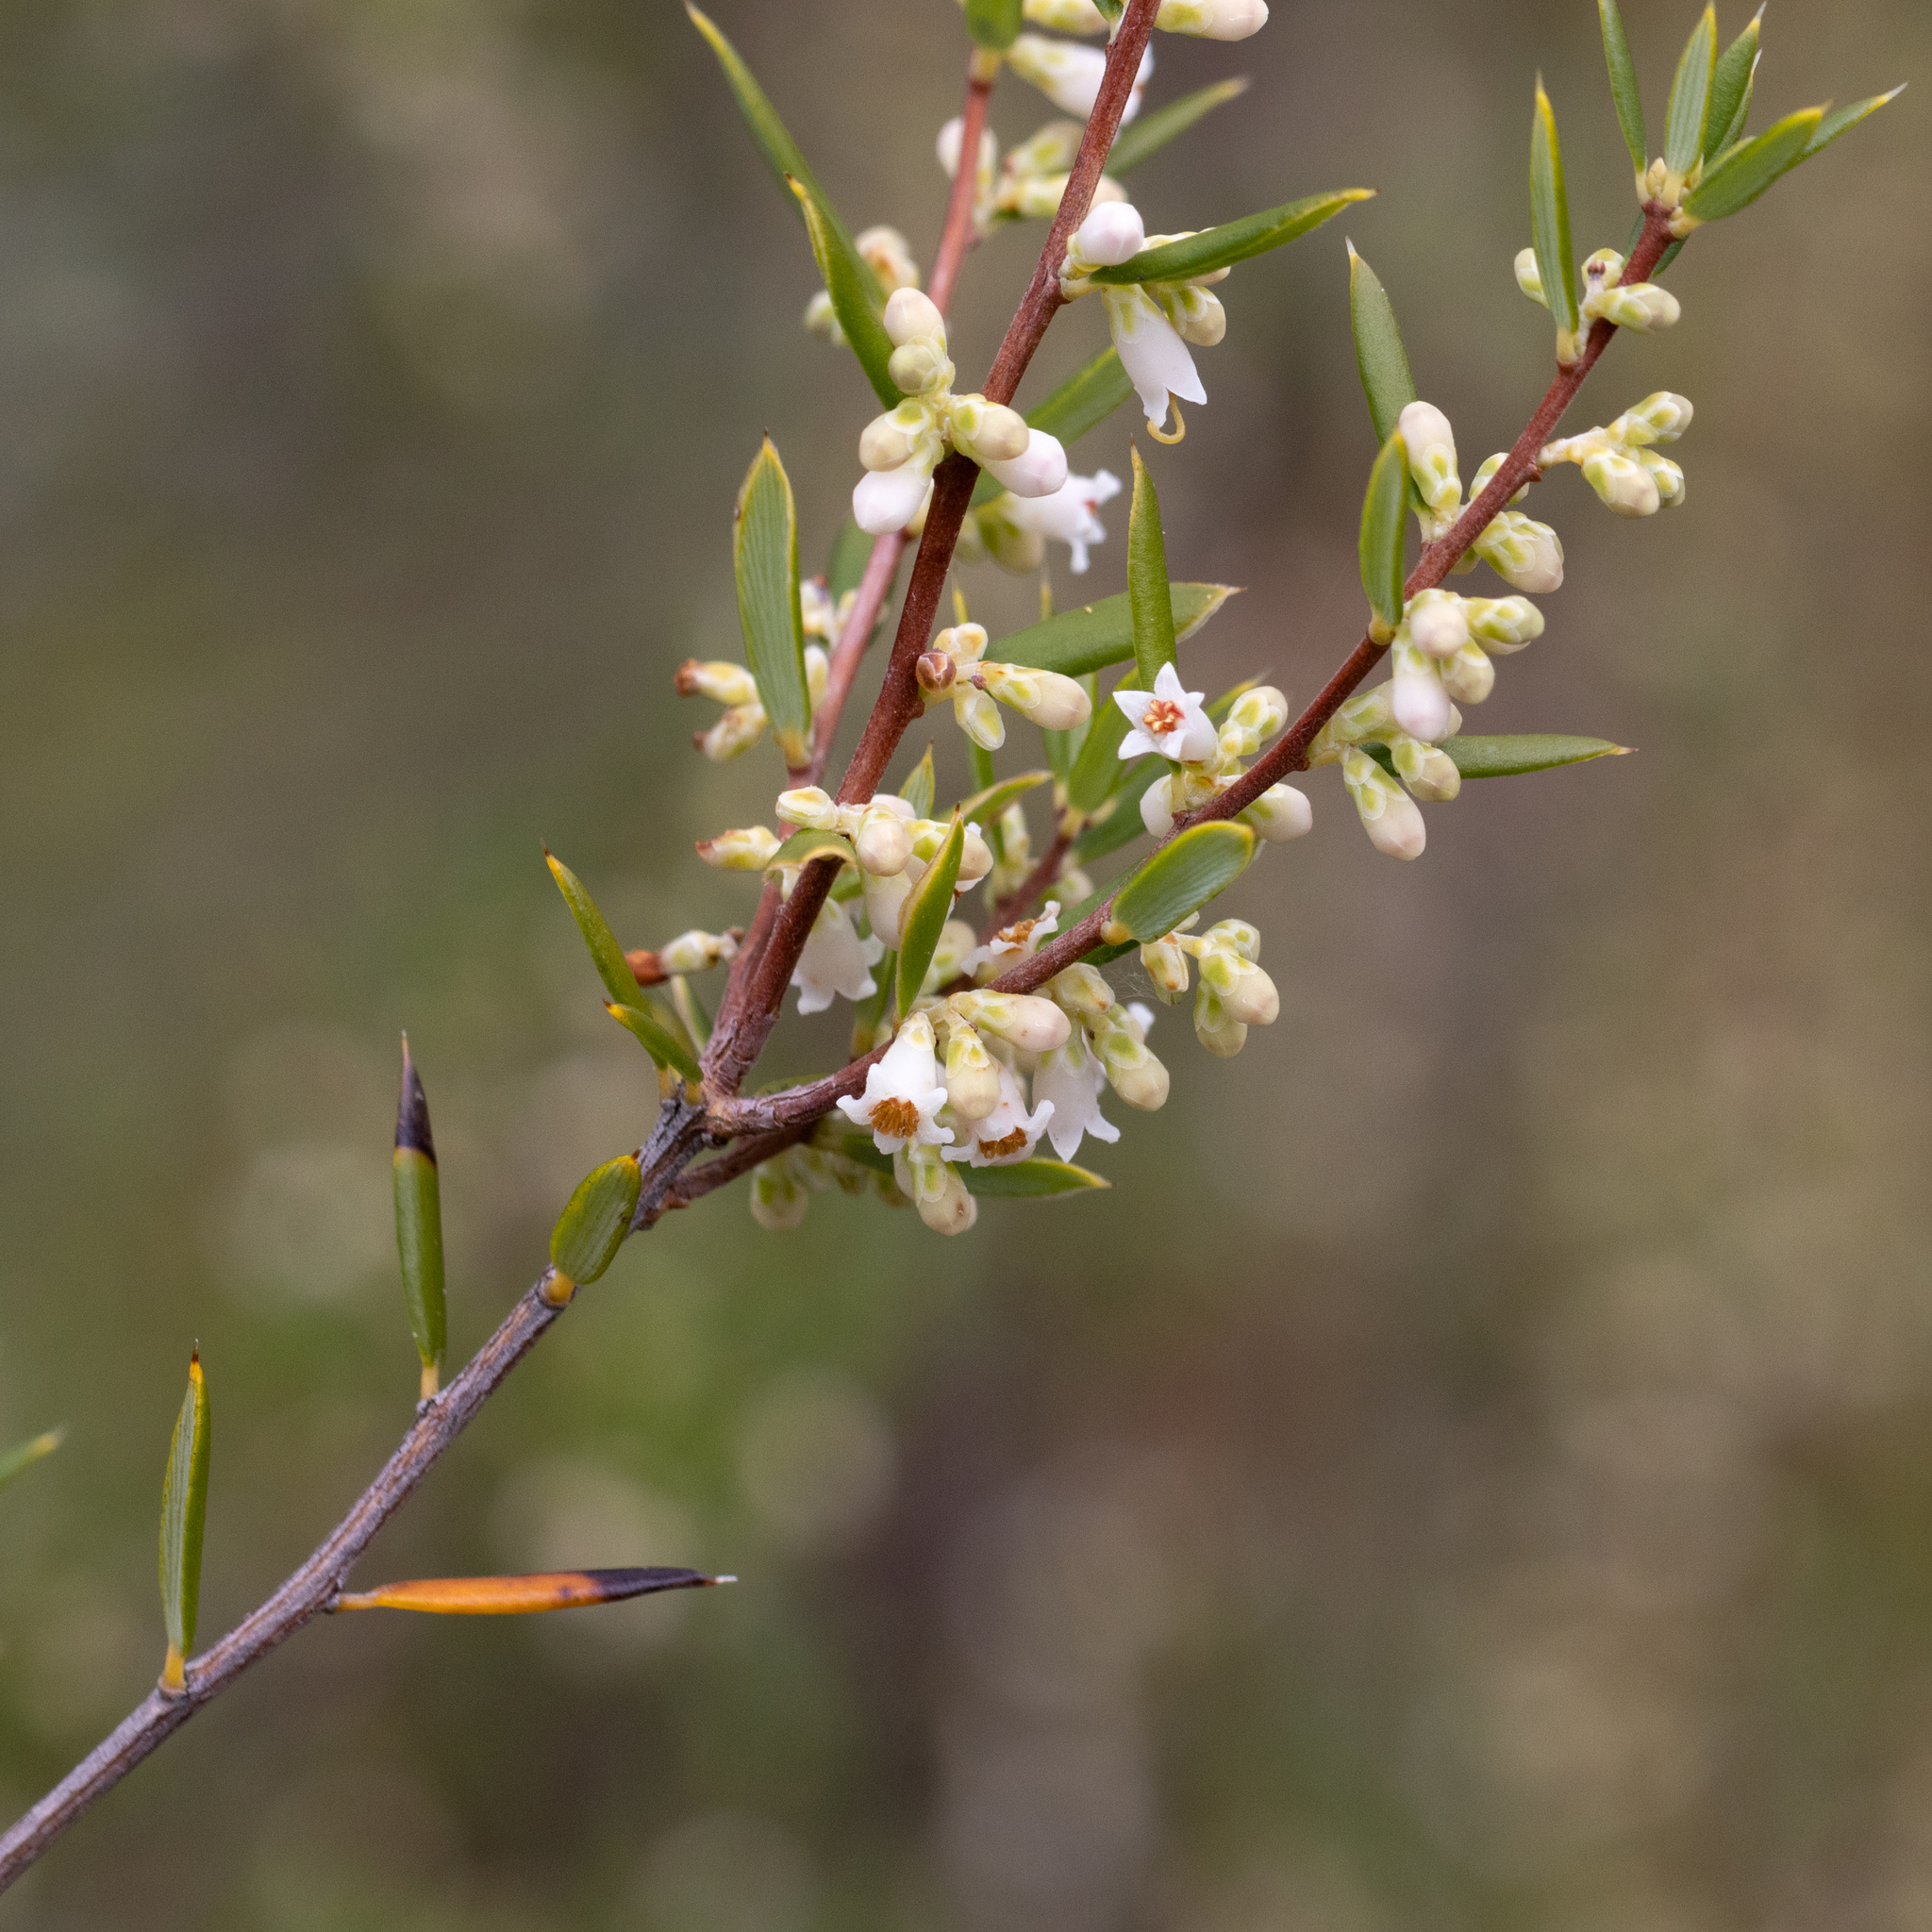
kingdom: Plantae
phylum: Tracheophyta
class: Magnoliopsida
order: Ericales
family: Ericaceae
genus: Monotoca
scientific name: Monotoca scoparia
